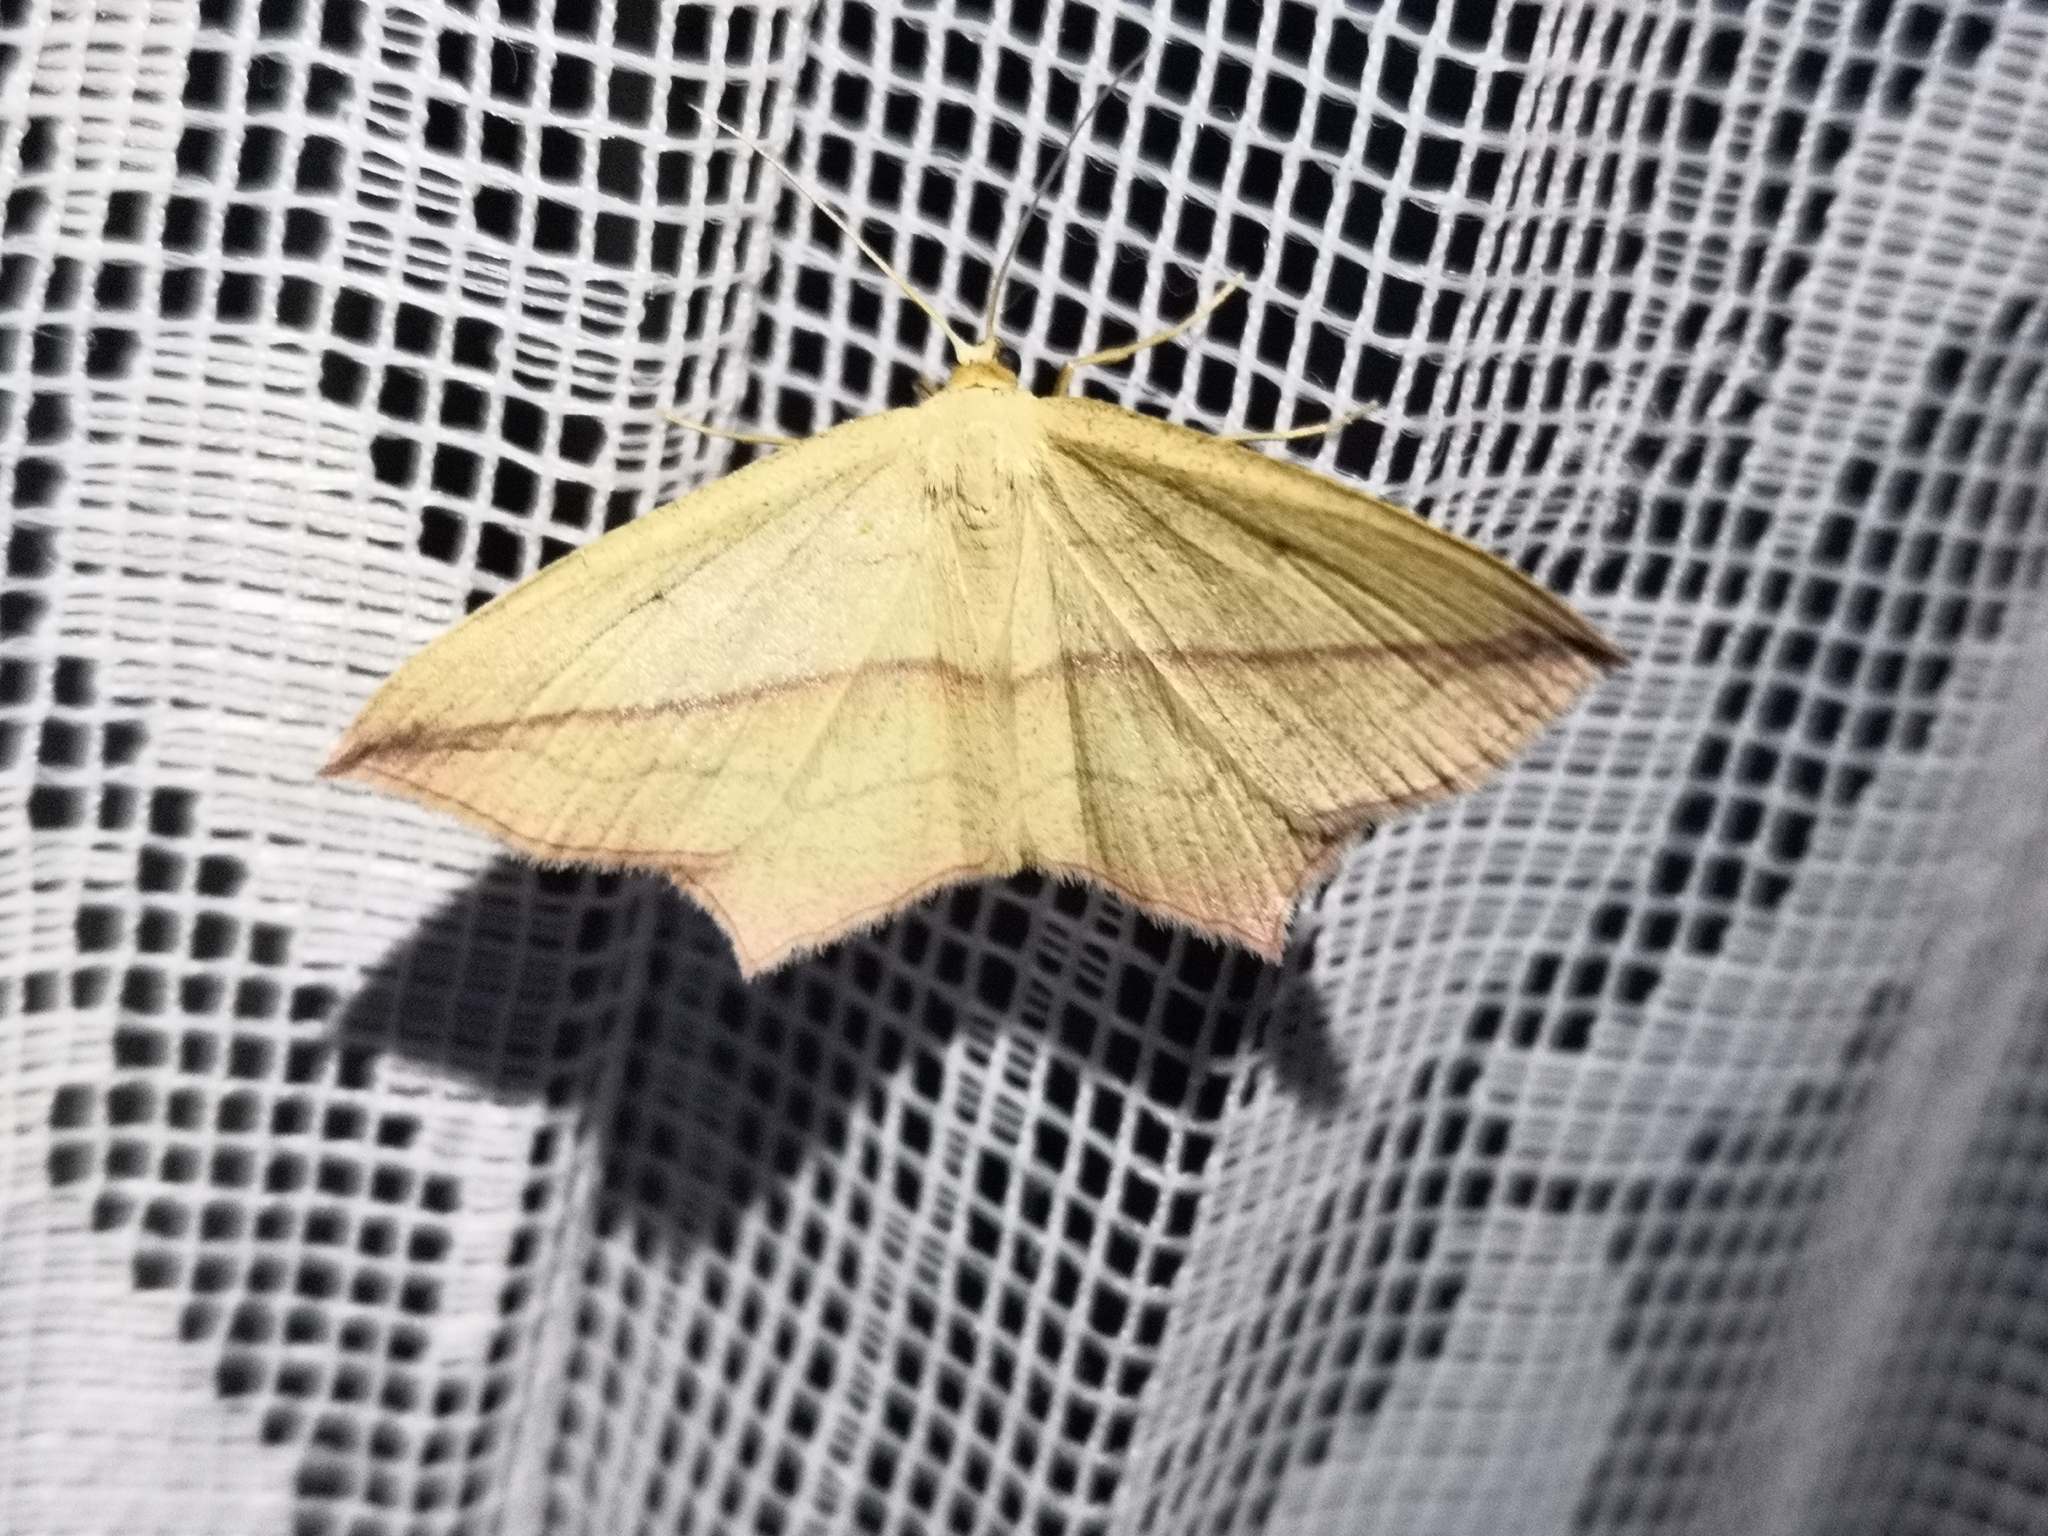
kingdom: Animalia
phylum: Arthropoda
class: Insecta
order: Lepidoptera
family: Geometridae
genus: Timandra
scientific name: Timandra comae
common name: Blood-vein
